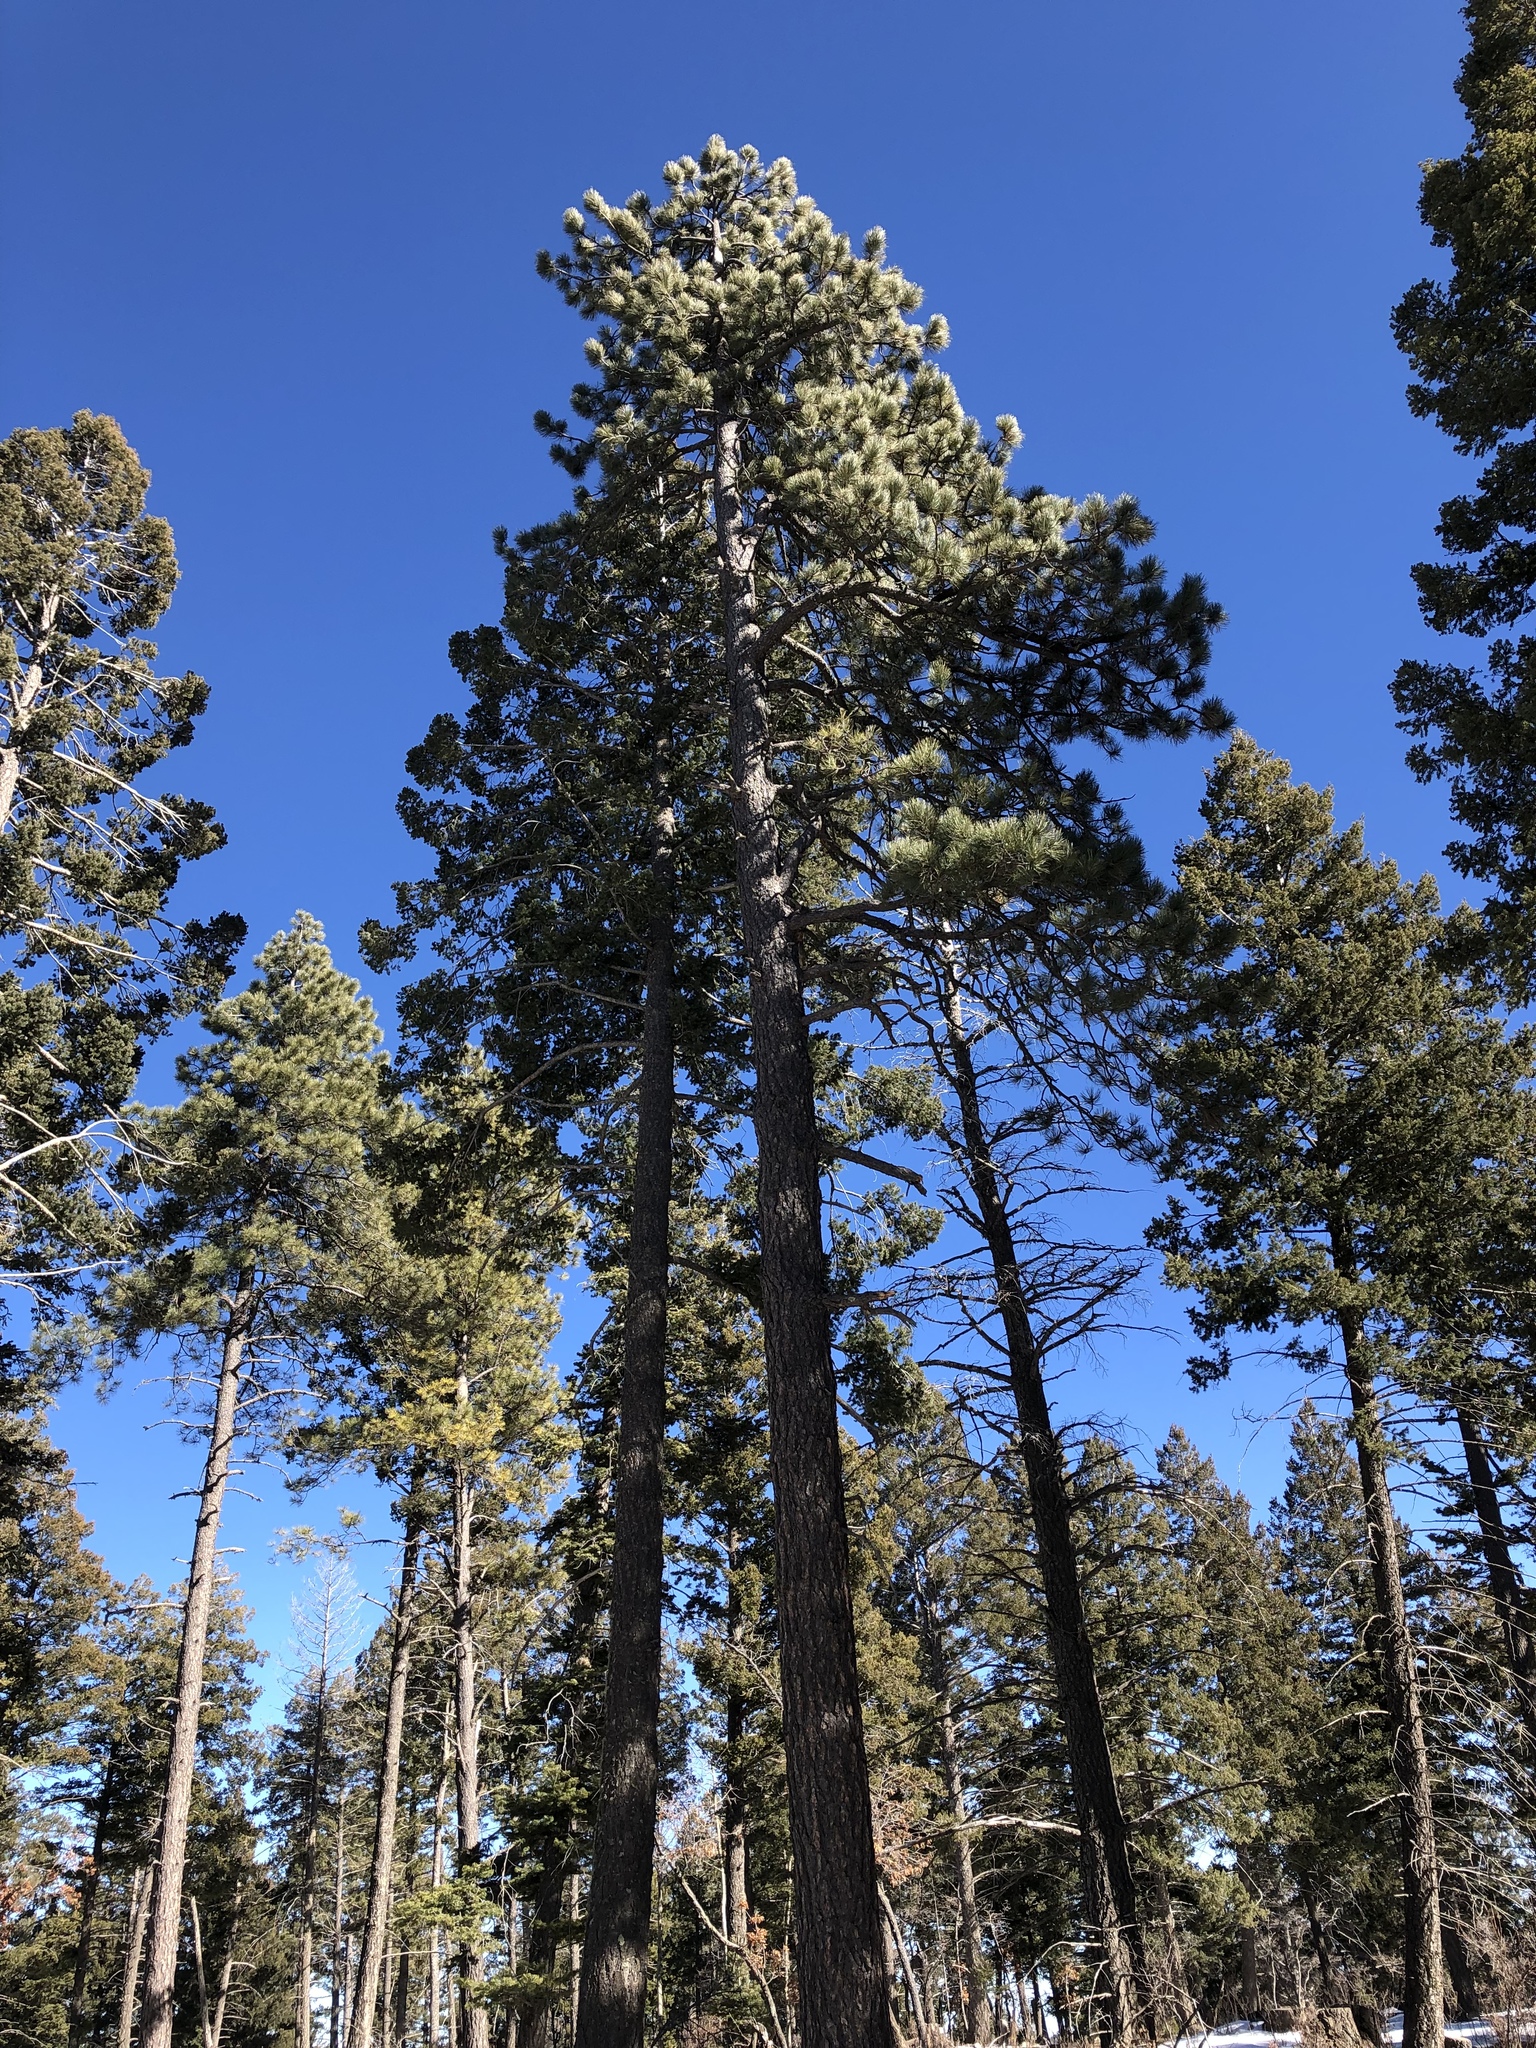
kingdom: Plantae
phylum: Tracheophyta
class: Pinopsida
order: Pinales
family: Pinaceae
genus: Pinus
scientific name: Pinus ponderosa
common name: Western yellow-pine
